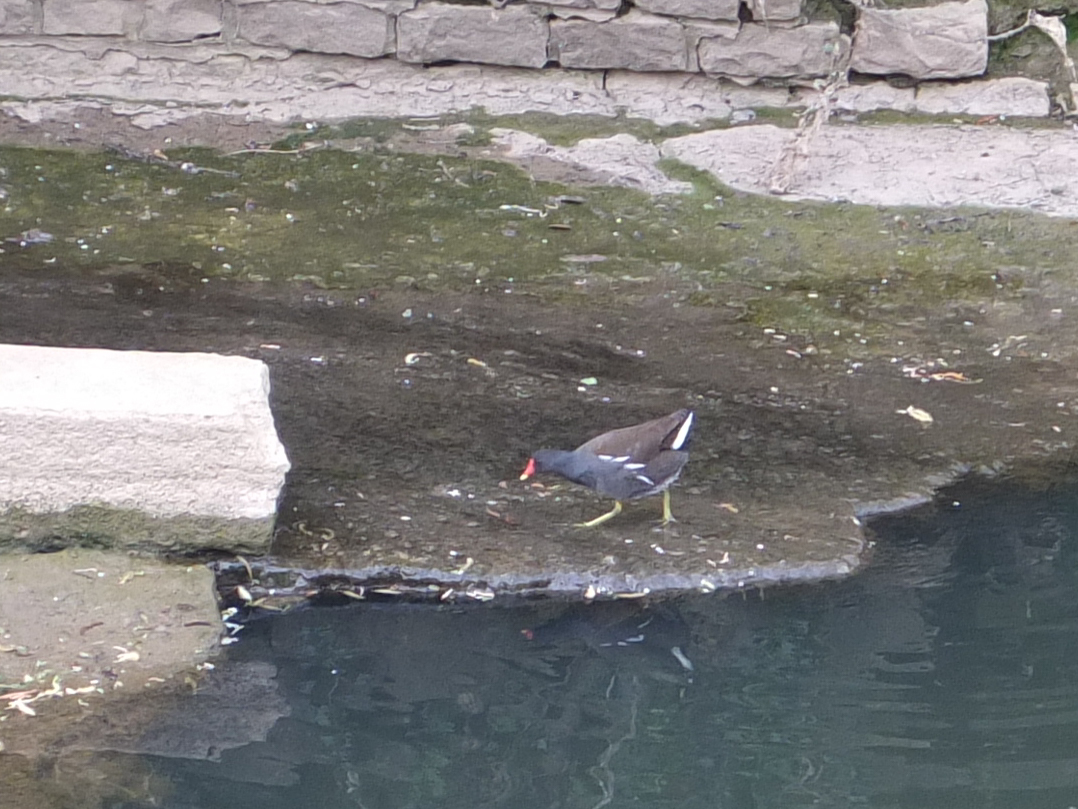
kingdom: Animalia
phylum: Chordata
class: Aves
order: Gruiformes
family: Rallidae
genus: Gallinula
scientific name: Gallinula chloropus
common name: Common moorhen
